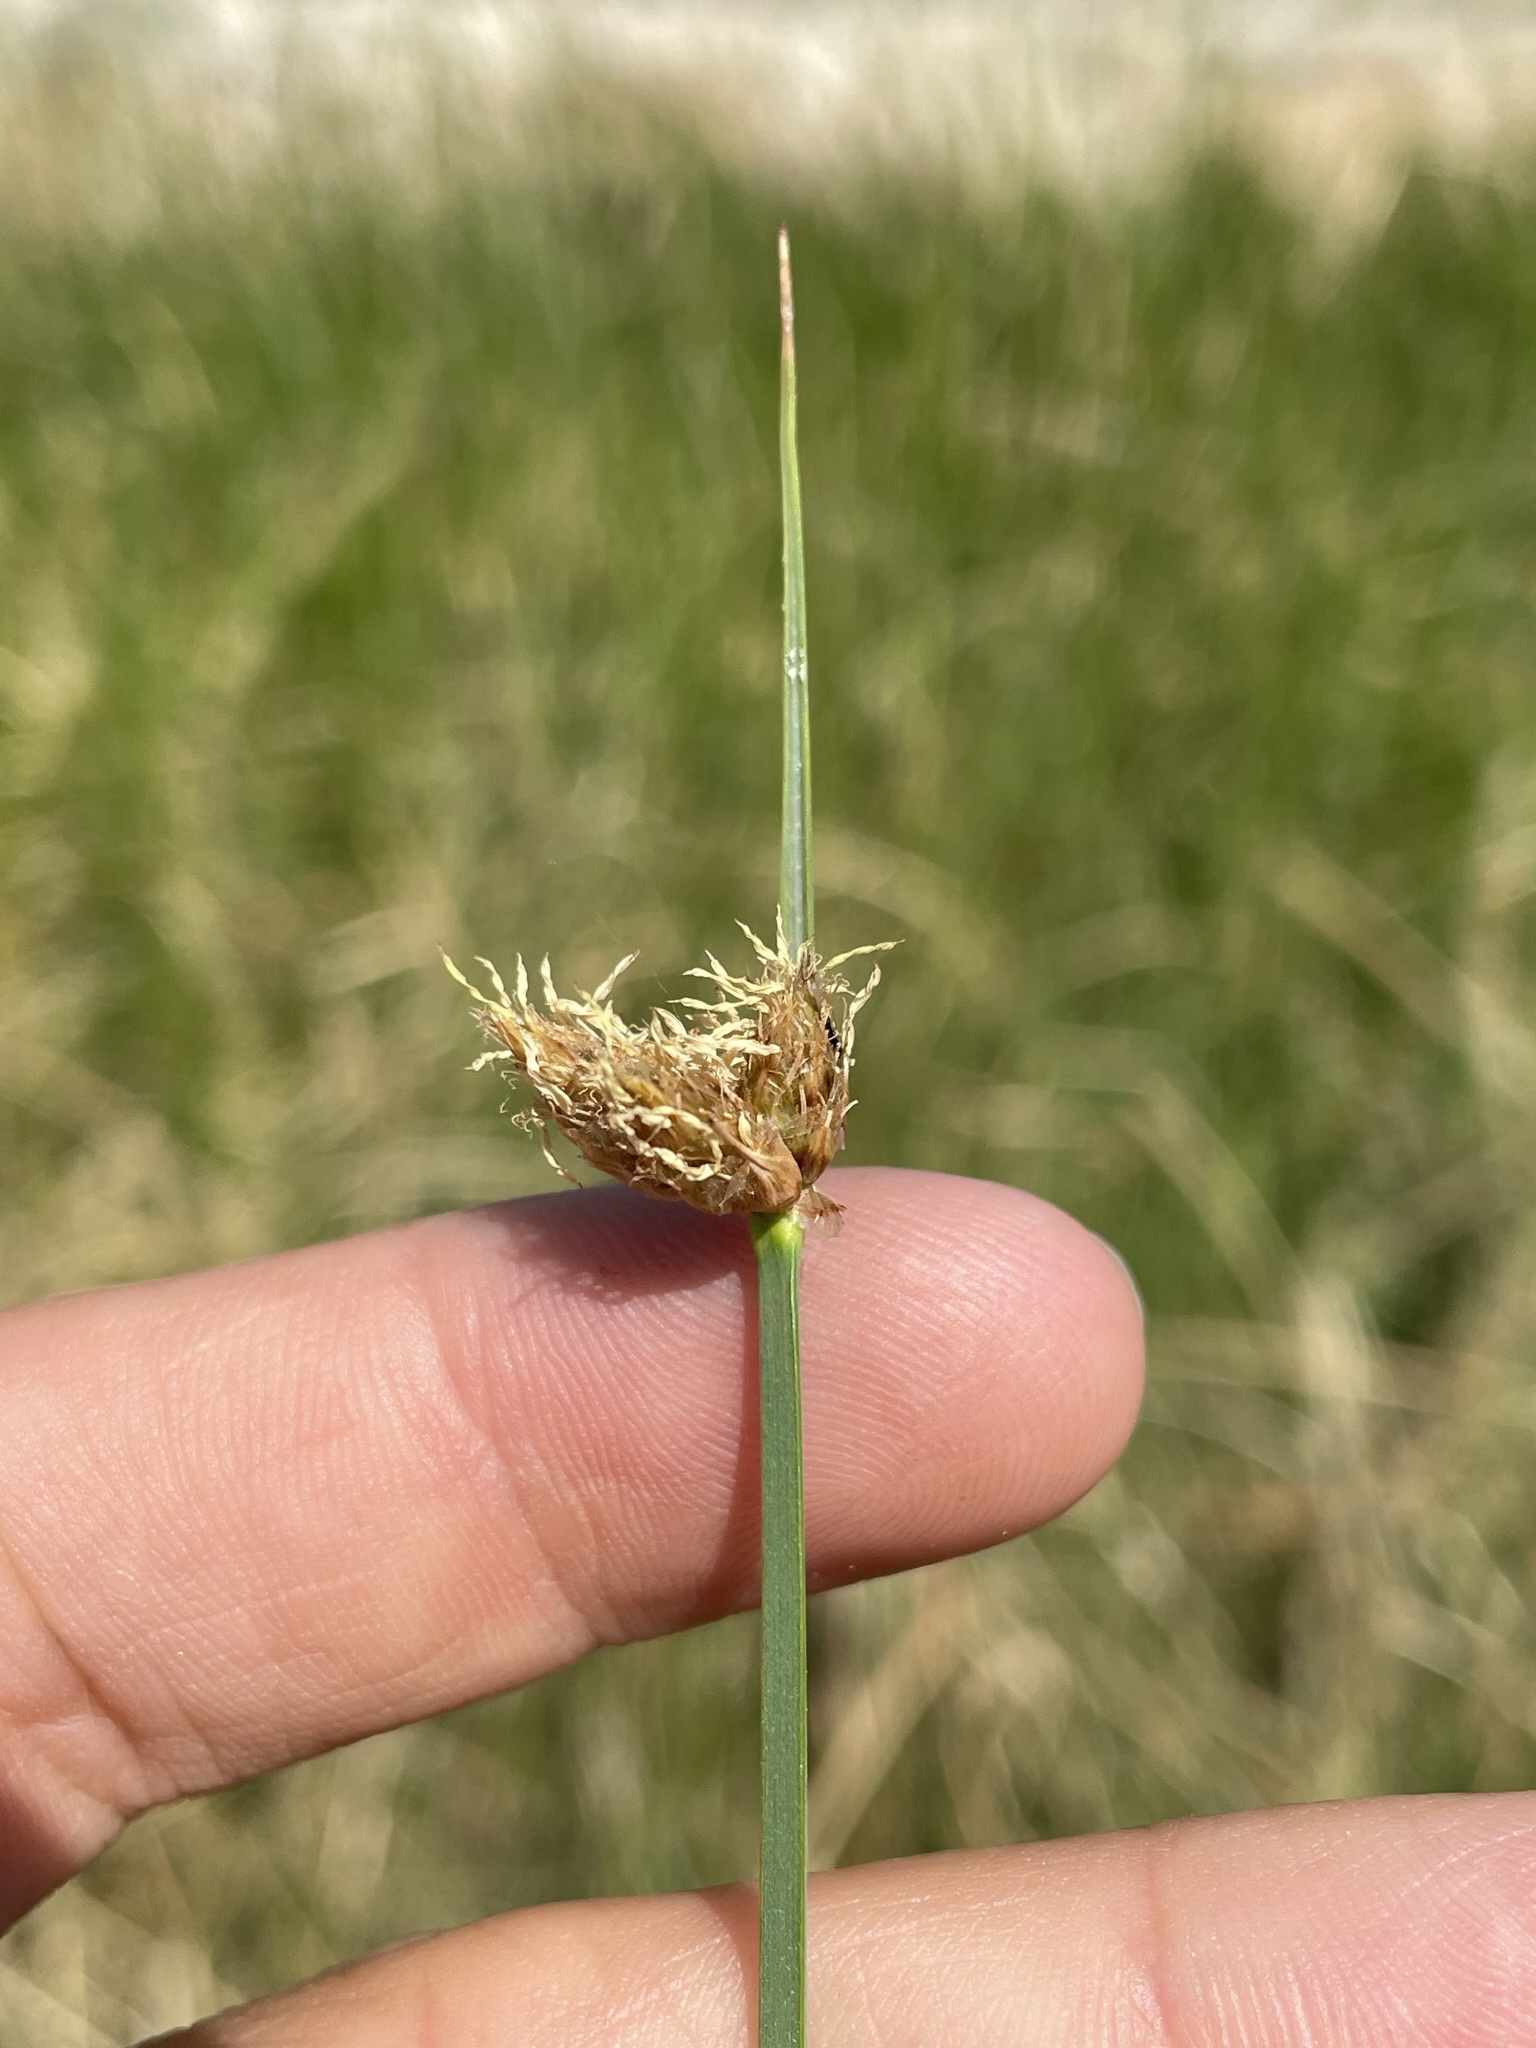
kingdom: Plantae
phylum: Tracheophyta
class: Liliopsida
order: Poales
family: Cyperaceae
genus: Schoenoplectus
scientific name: Schoenoplectus pungens
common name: Sharp club-rush
